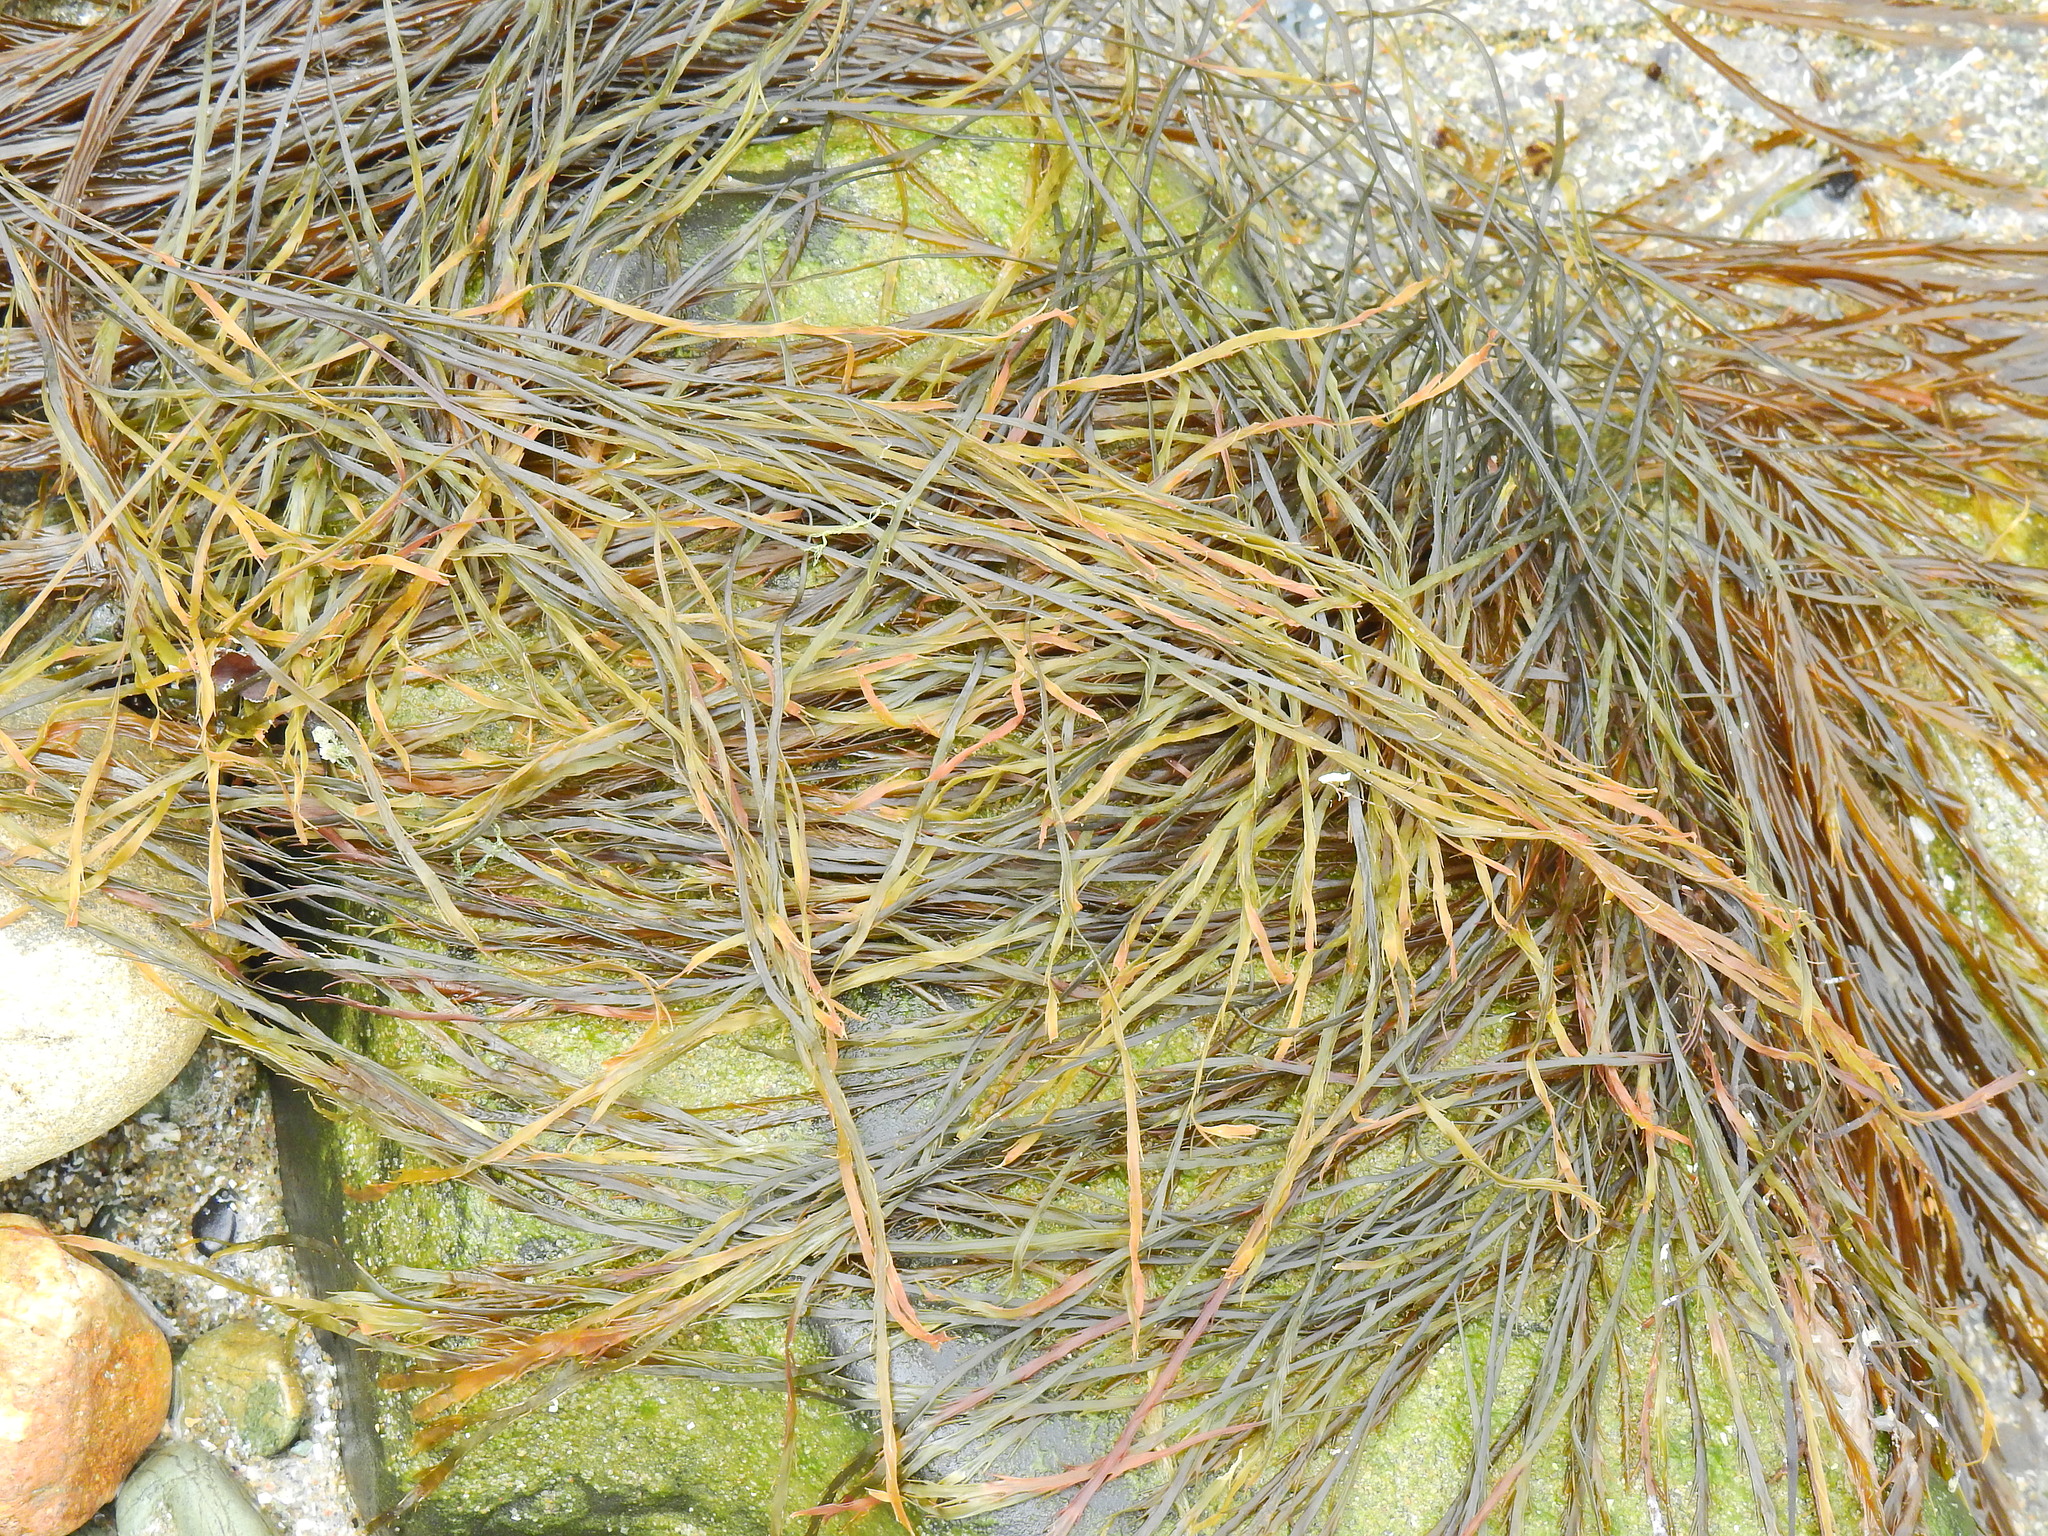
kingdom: Chromista
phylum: Ochrophyta
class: Phaeophyceae
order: Desmarestiales
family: Desmarestiaceae
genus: Desmarestia
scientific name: Desmarestia aculeata
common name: Witch's hair
